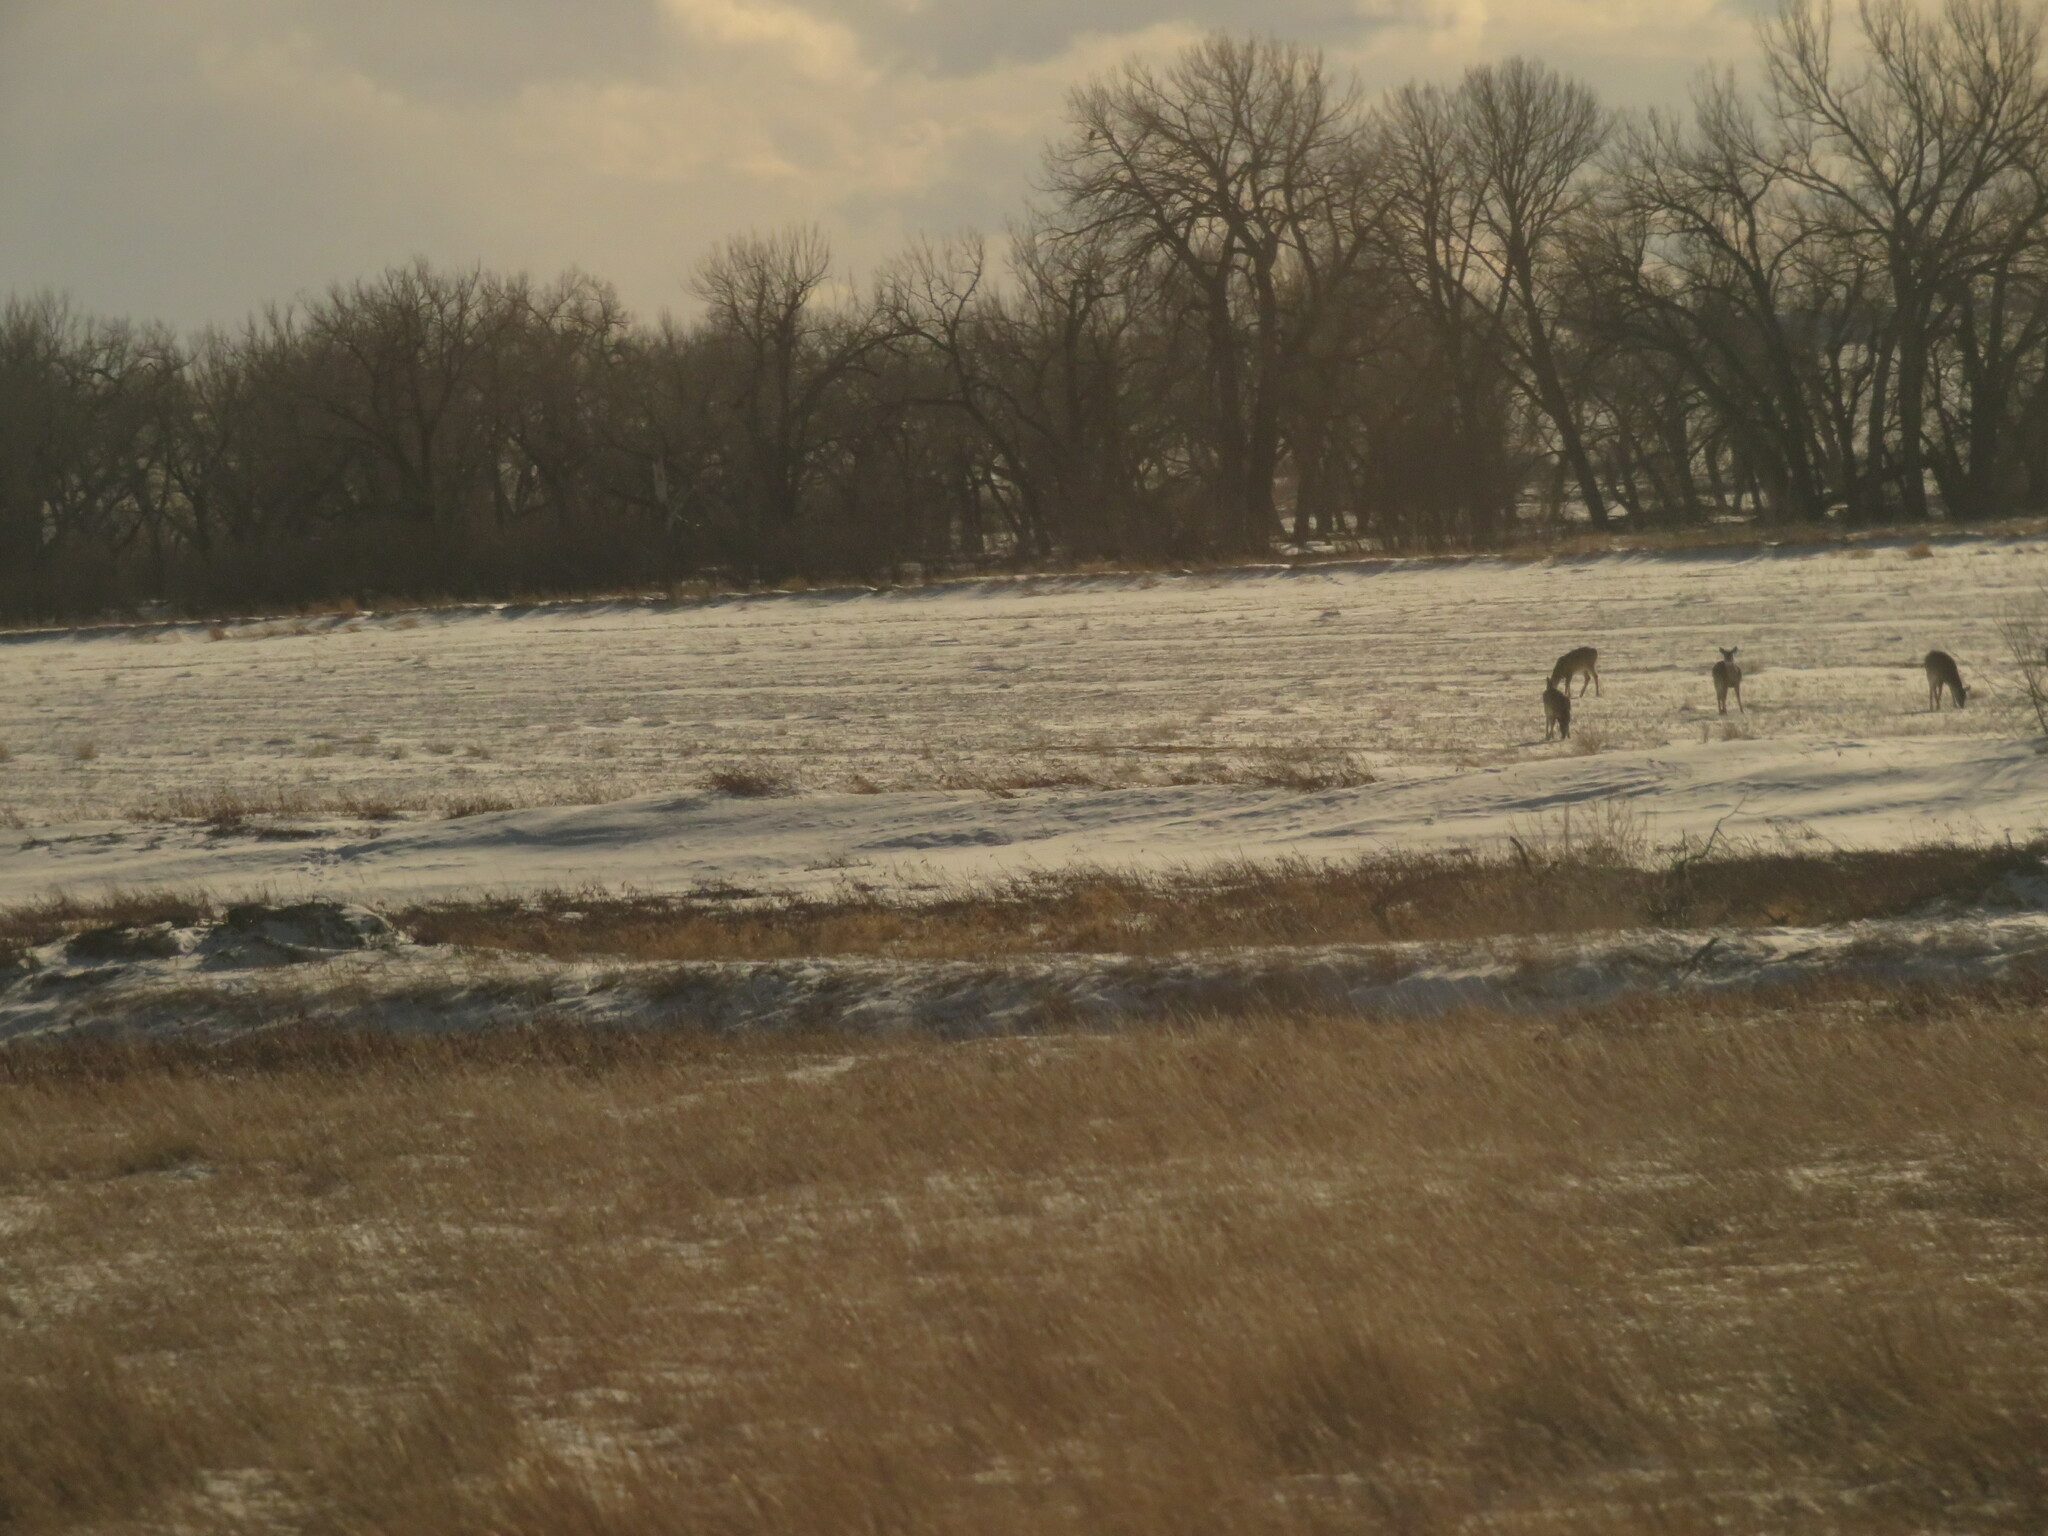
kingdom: Animalia
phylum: Chordata
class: Mammalia
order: Artiodactyla
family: Cervidae
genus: Odocoileus
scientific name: Odocoileus virginianus
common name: White-tailed deer
